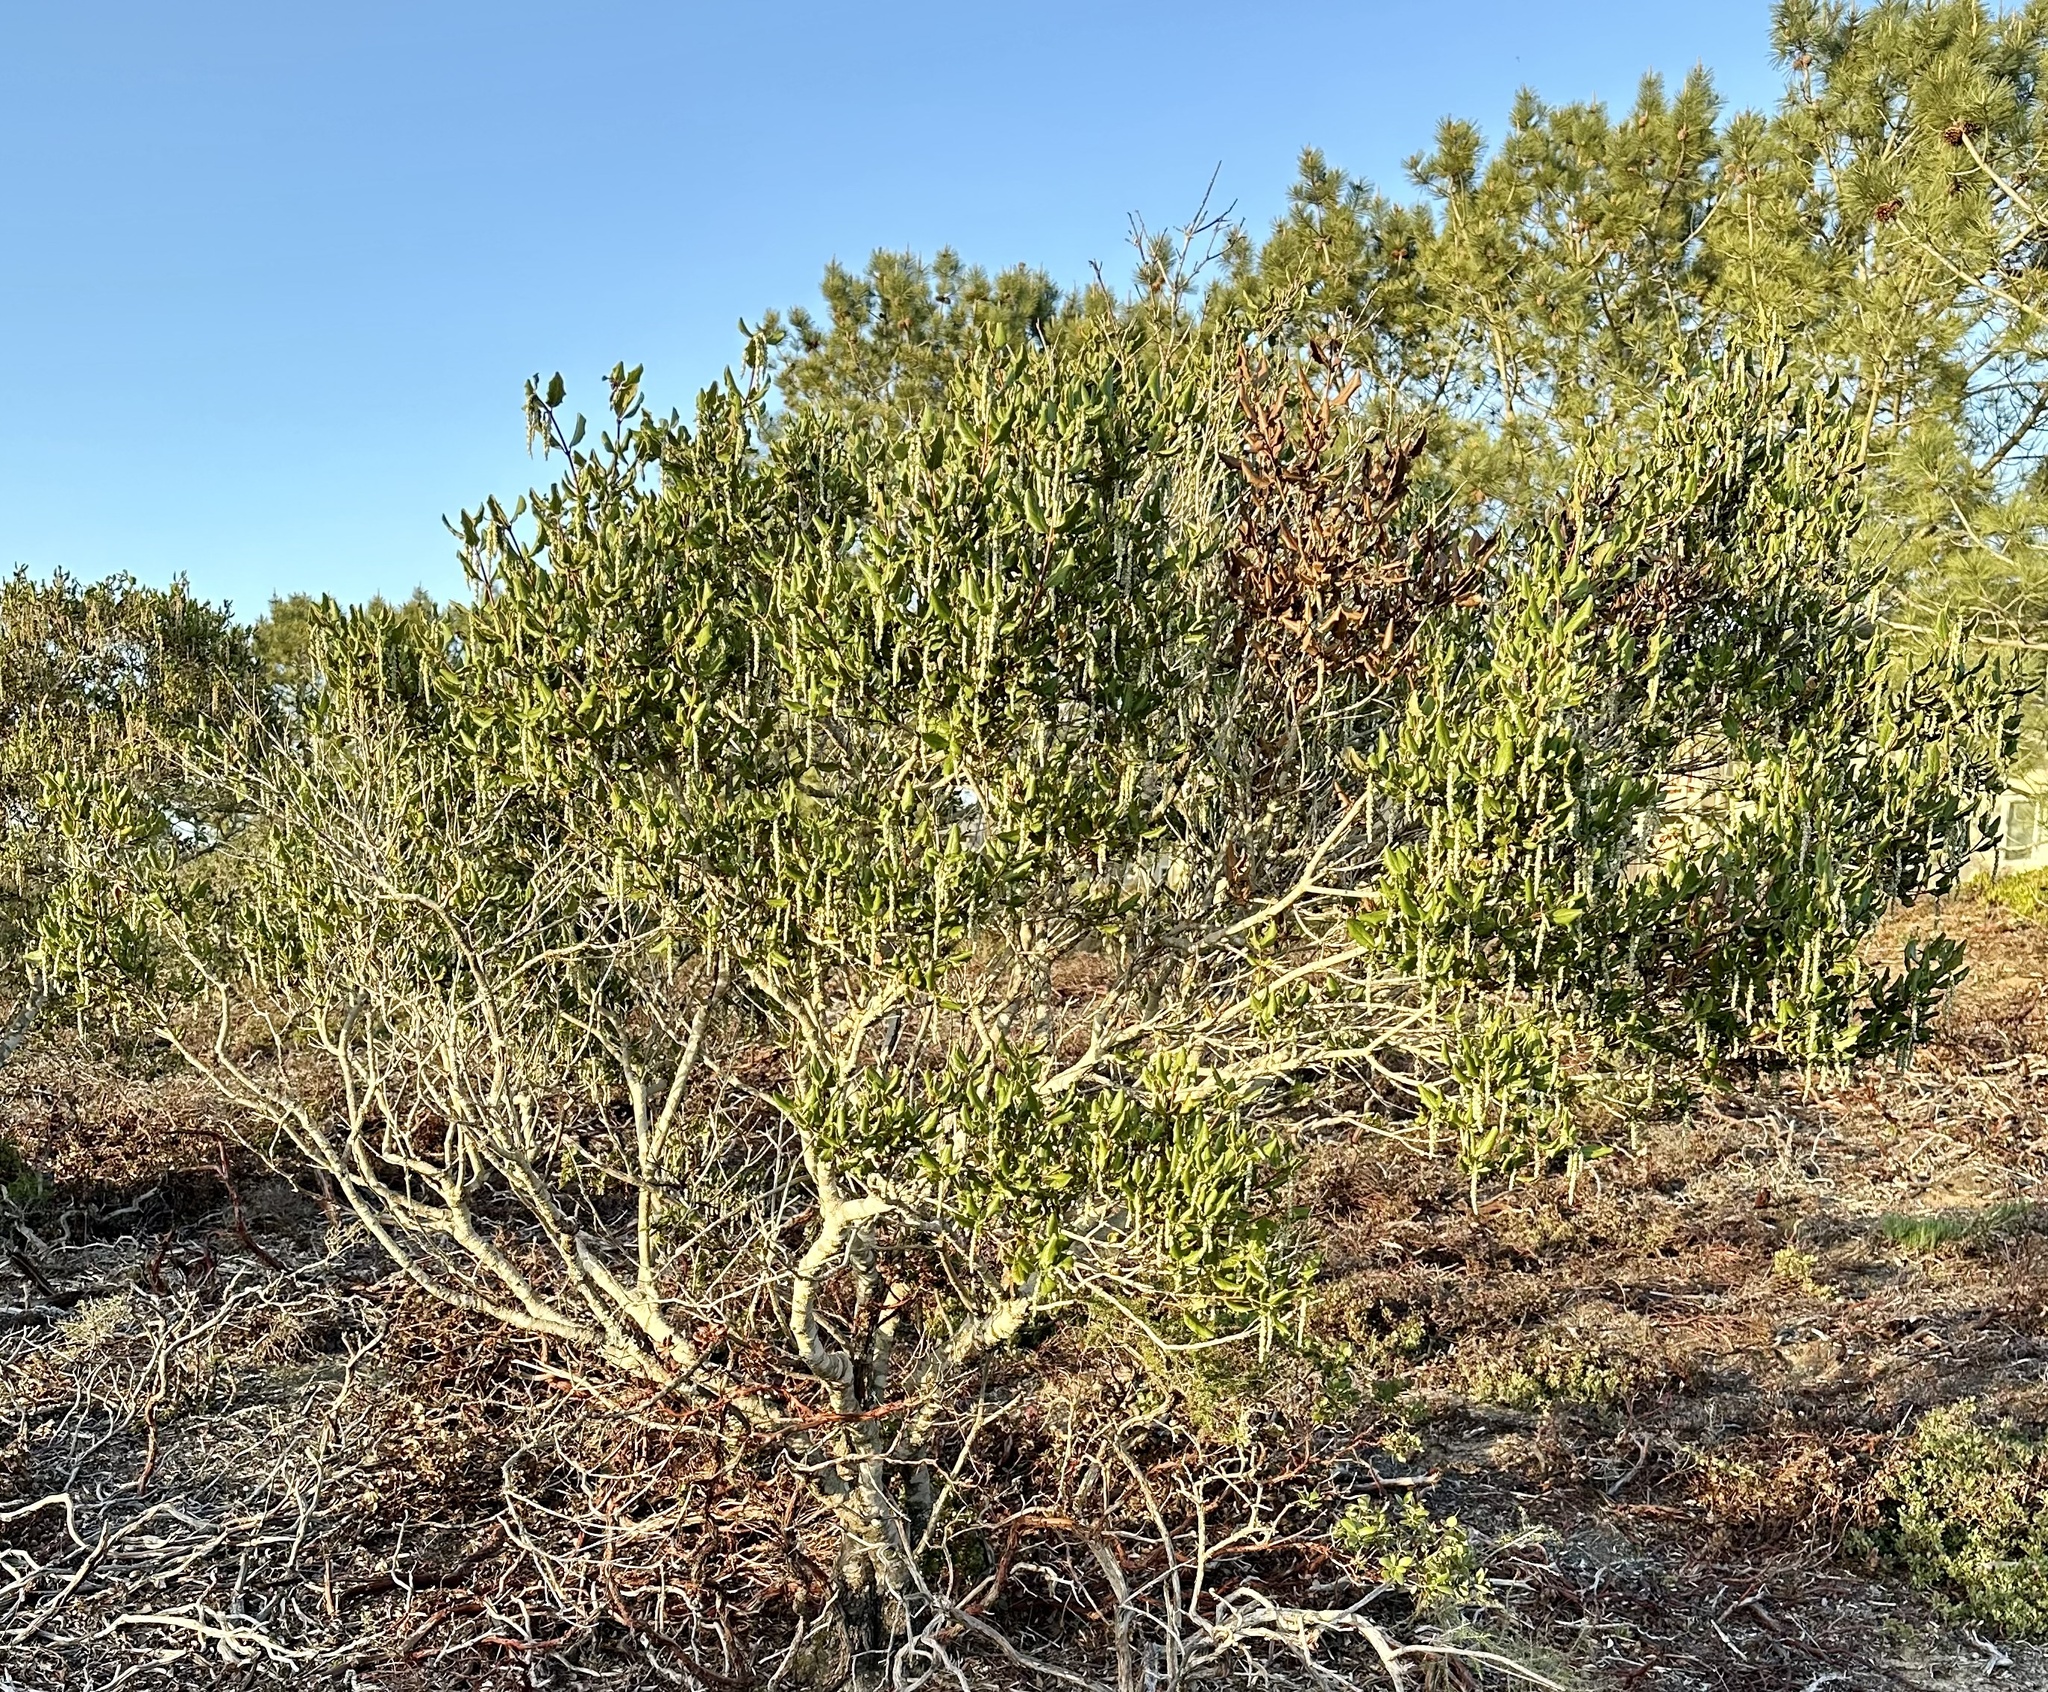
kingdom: Plantae
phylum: Tracheophyta
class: Magnoliopsida
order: Garryales
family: Garryaceae
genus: Garrya
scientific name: Garrya elliptica
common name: Silk-tassel
